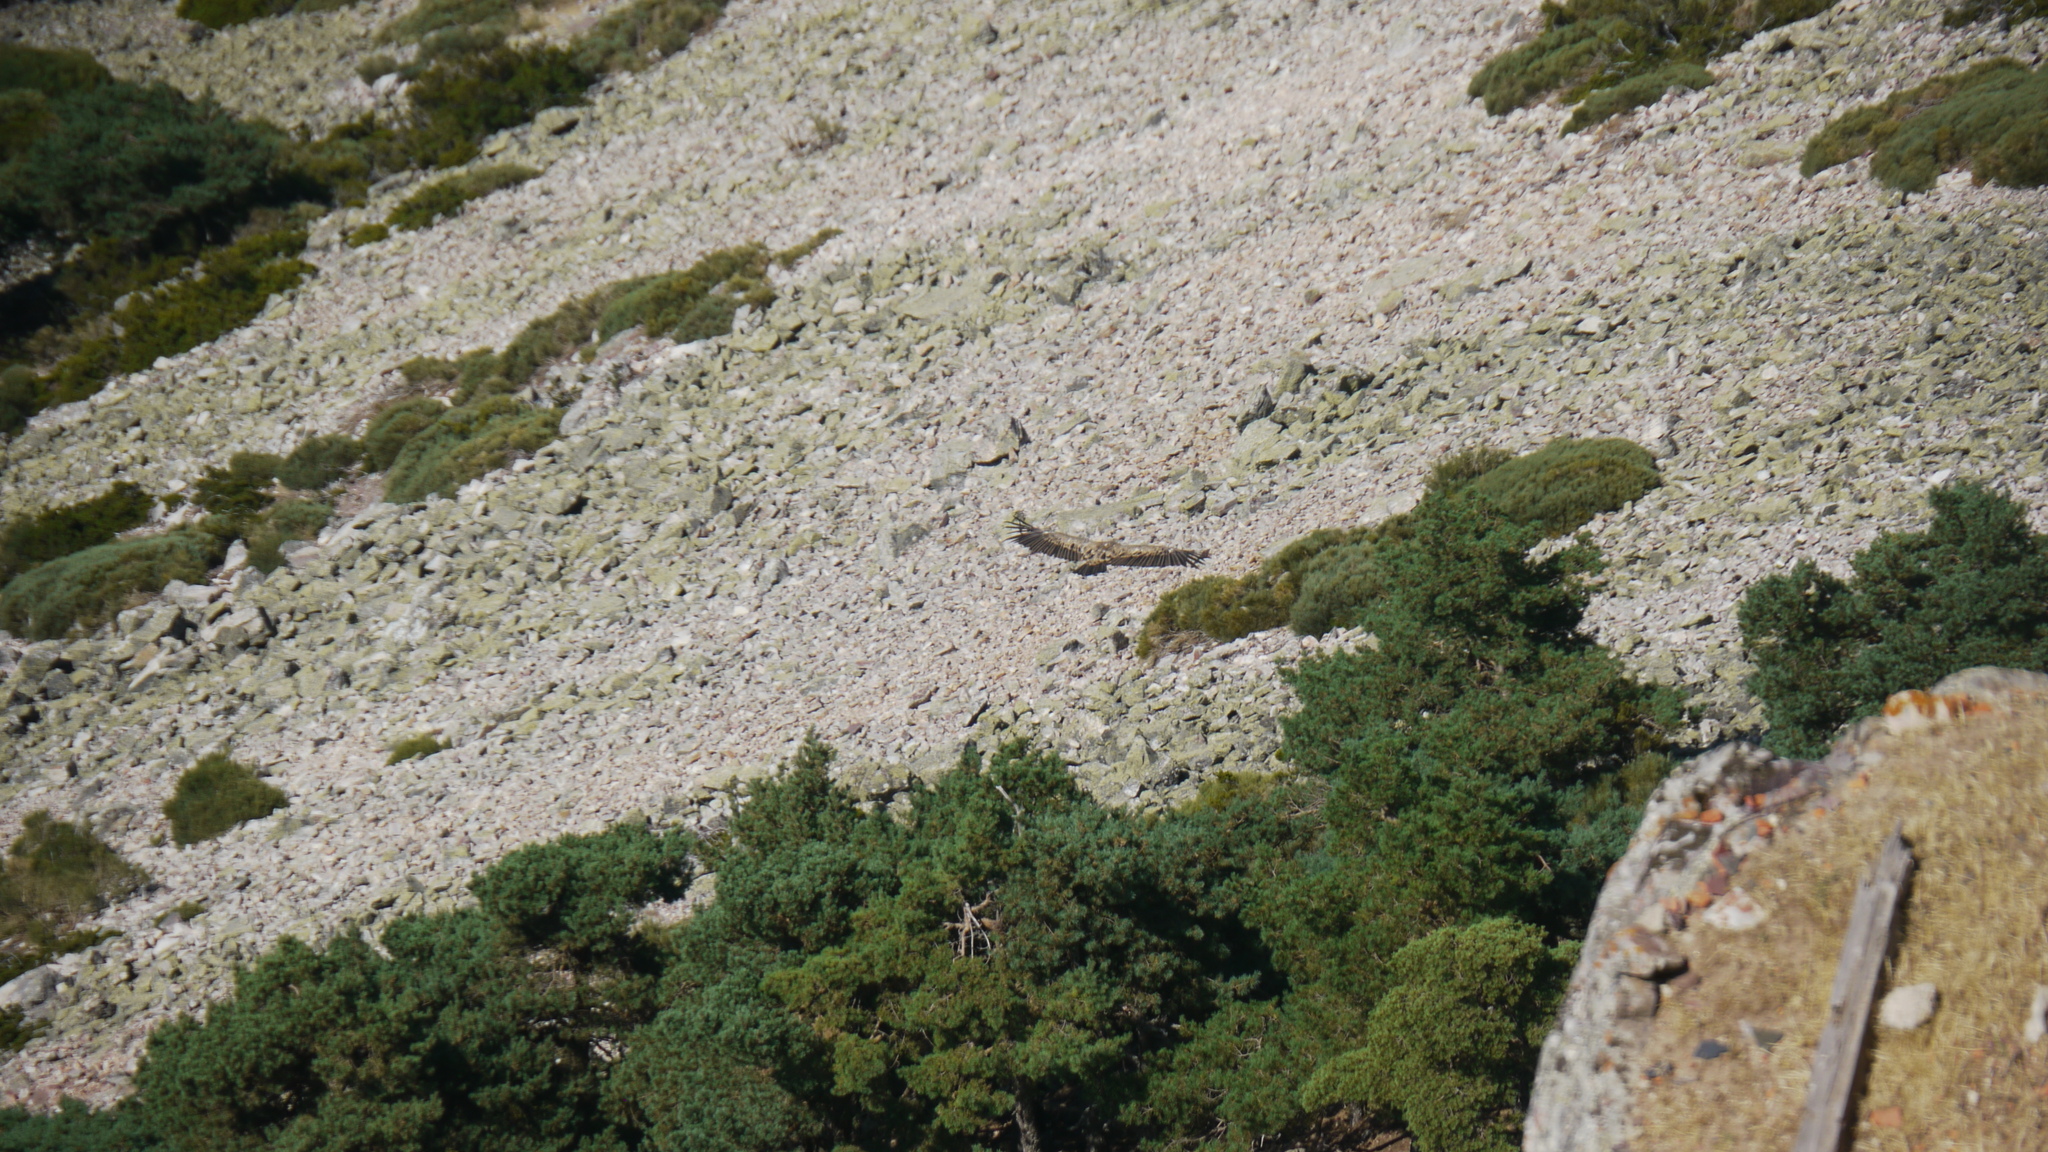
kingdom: Animalia
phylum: Chordata
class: Aves
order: Accipitriformes
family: Accipitridae
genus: Gyps
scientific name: Gyps fulvus
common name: Griffon vulture
